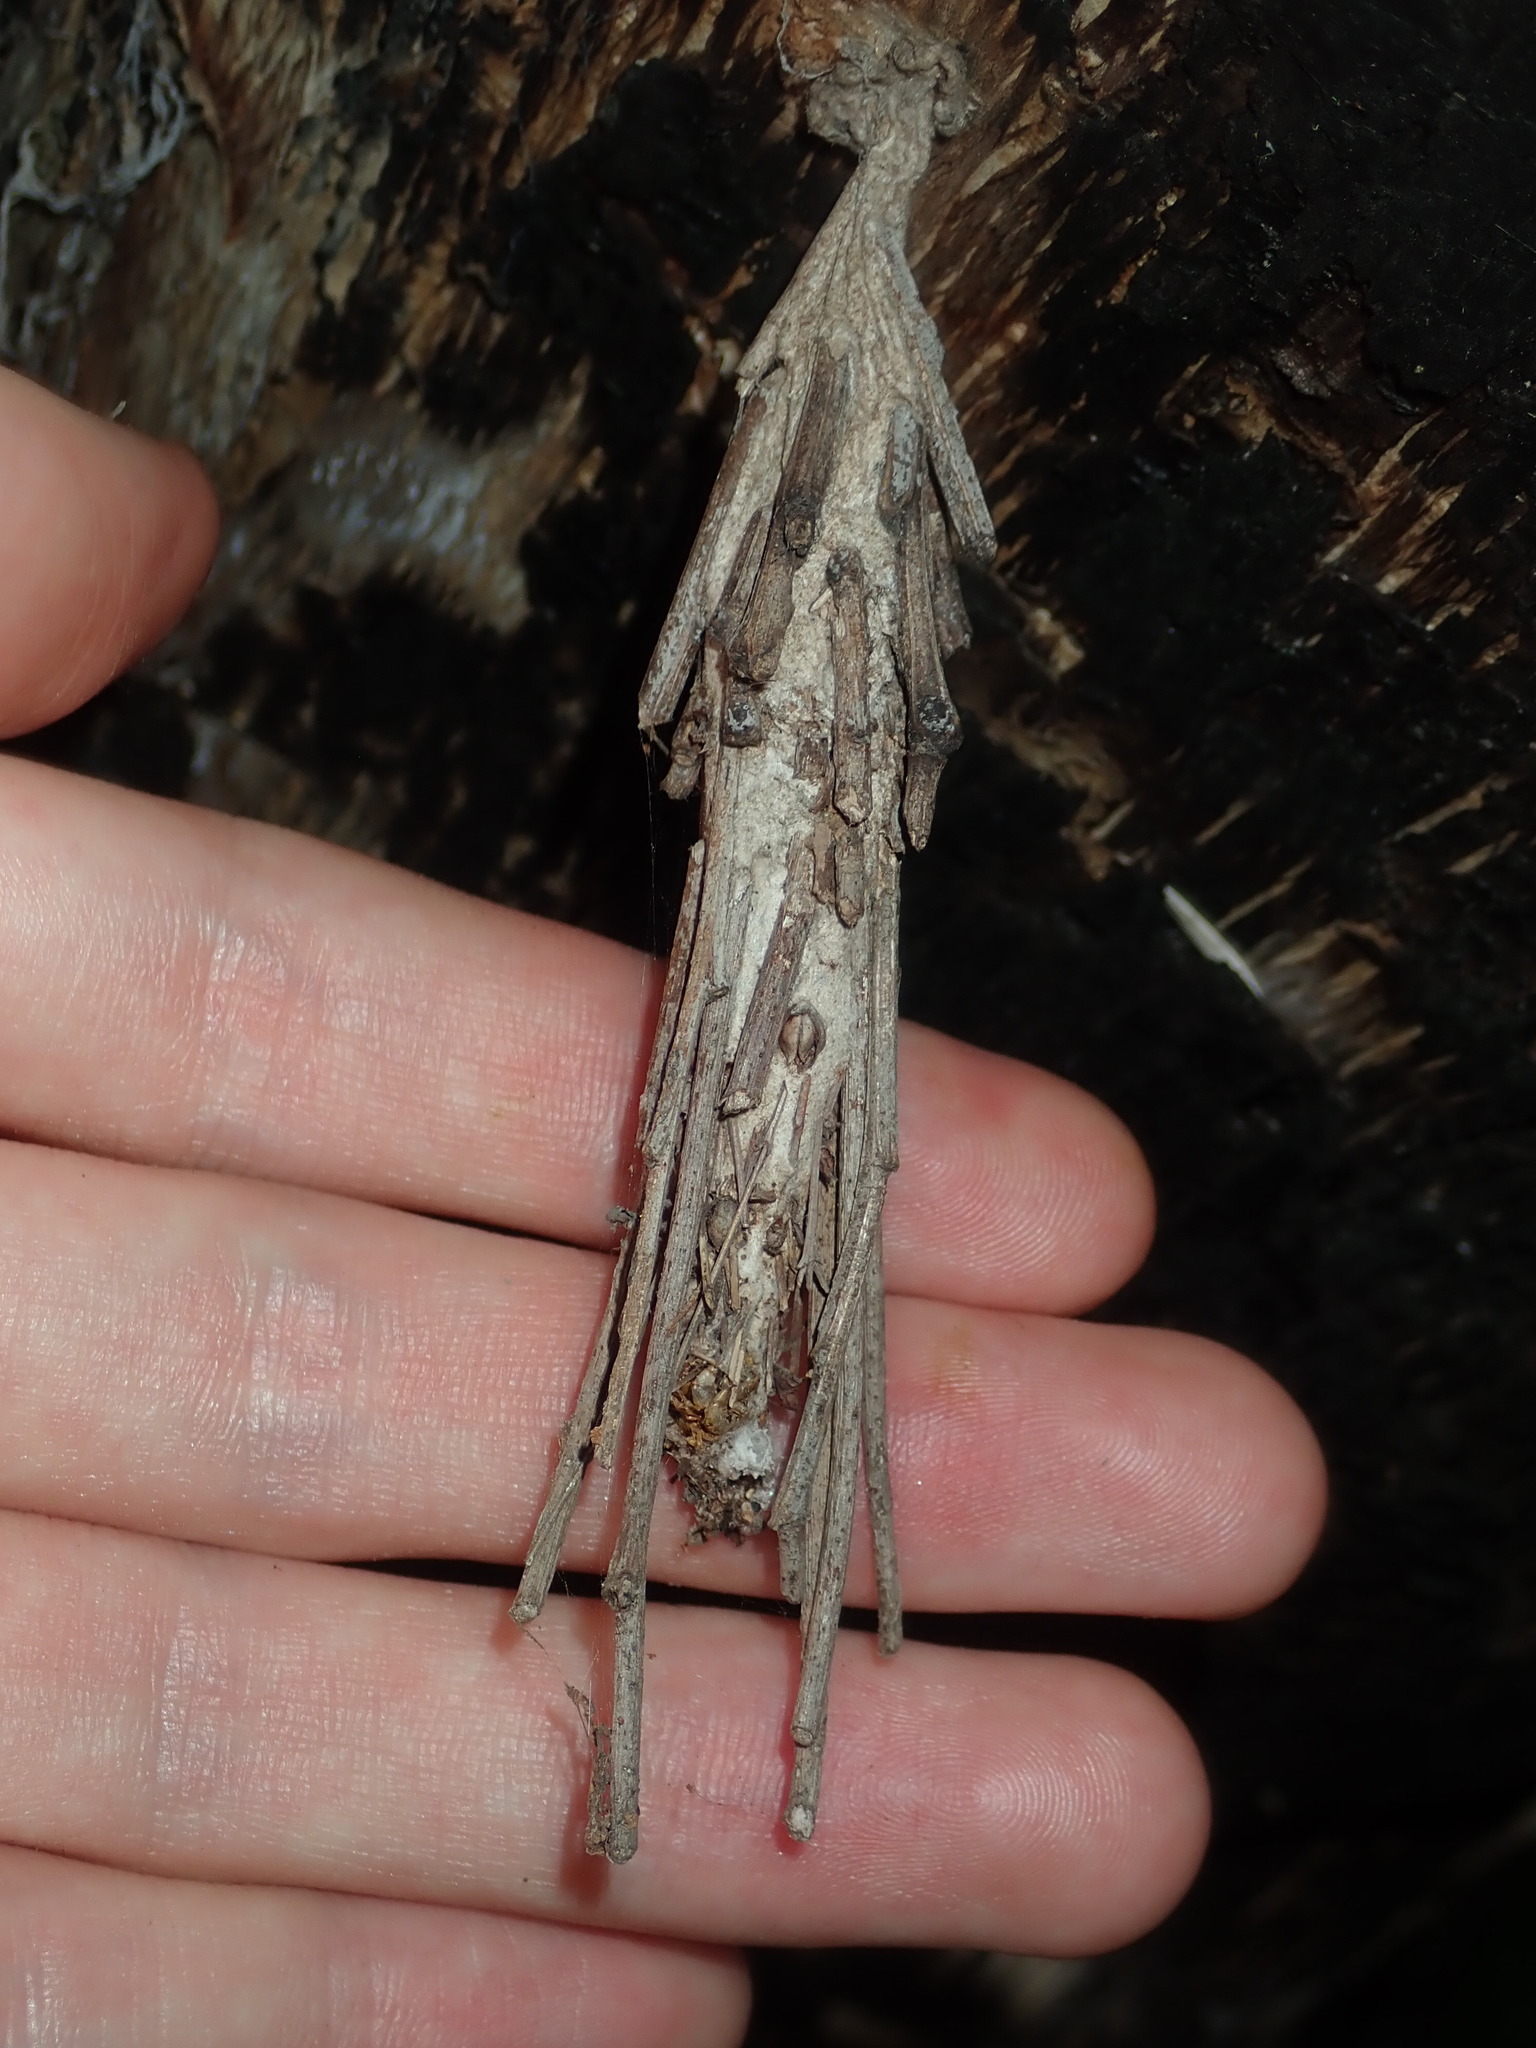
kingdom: Animalia
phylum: Arthropoda
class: Insecta
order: Lepidoptera
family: Psychidae
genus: Metura
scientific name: Metura elongatus
